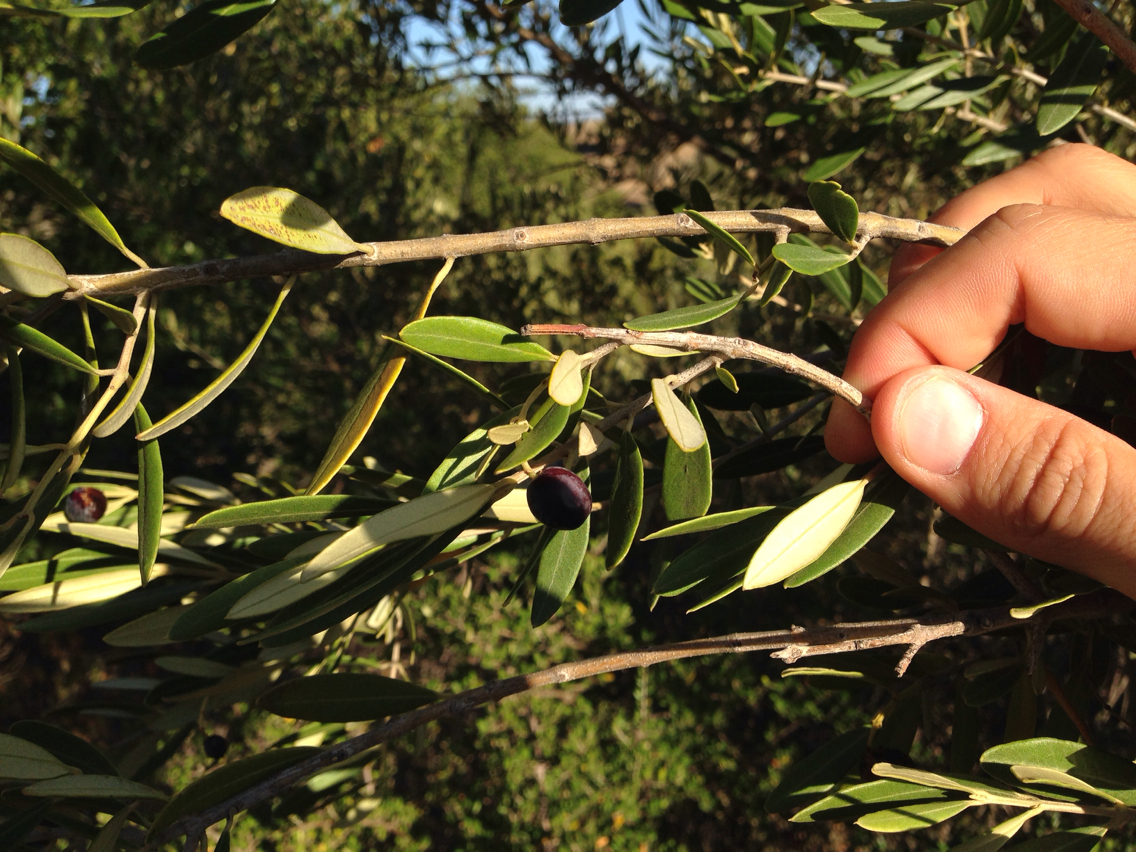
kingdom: Plantae
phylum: Tracheophyta
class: Magnoliopsida
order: Lamiales
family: Oleaceae
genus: Olea
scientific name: Olea europaea
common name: Olive
